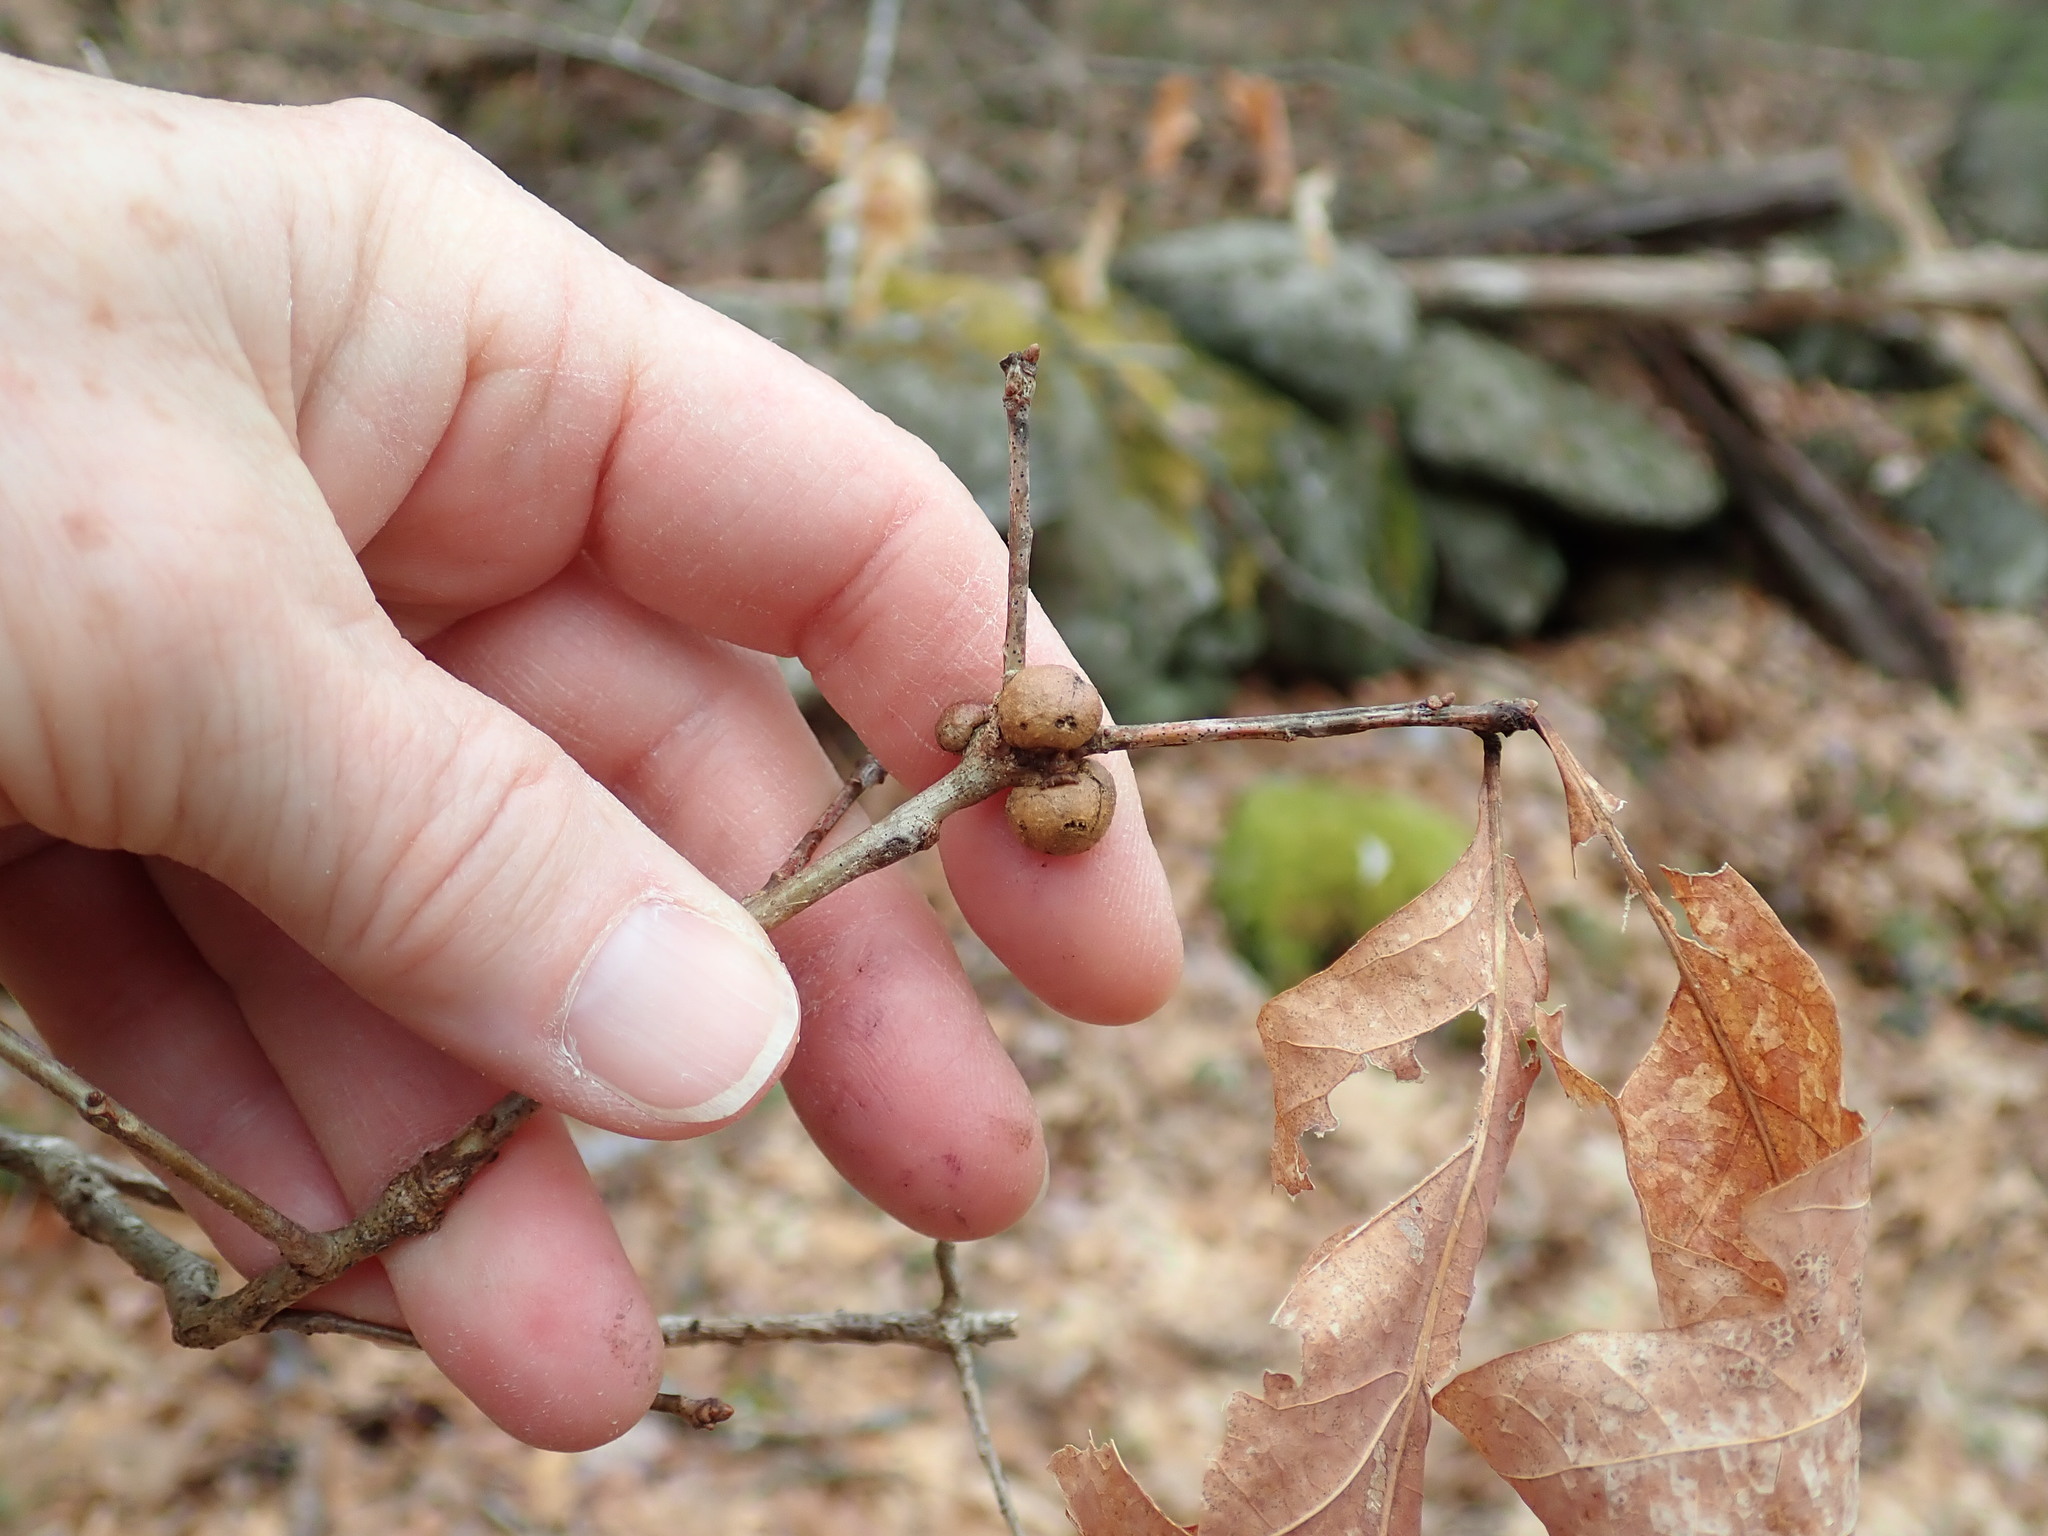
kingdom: Animalia
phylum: Arthropoda
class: Insecta
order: Hymenoptera
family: Cynipidae
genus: Disholcaspis
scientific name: Disholcaspis quercusglobulus
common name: Round bullet gall wasp
